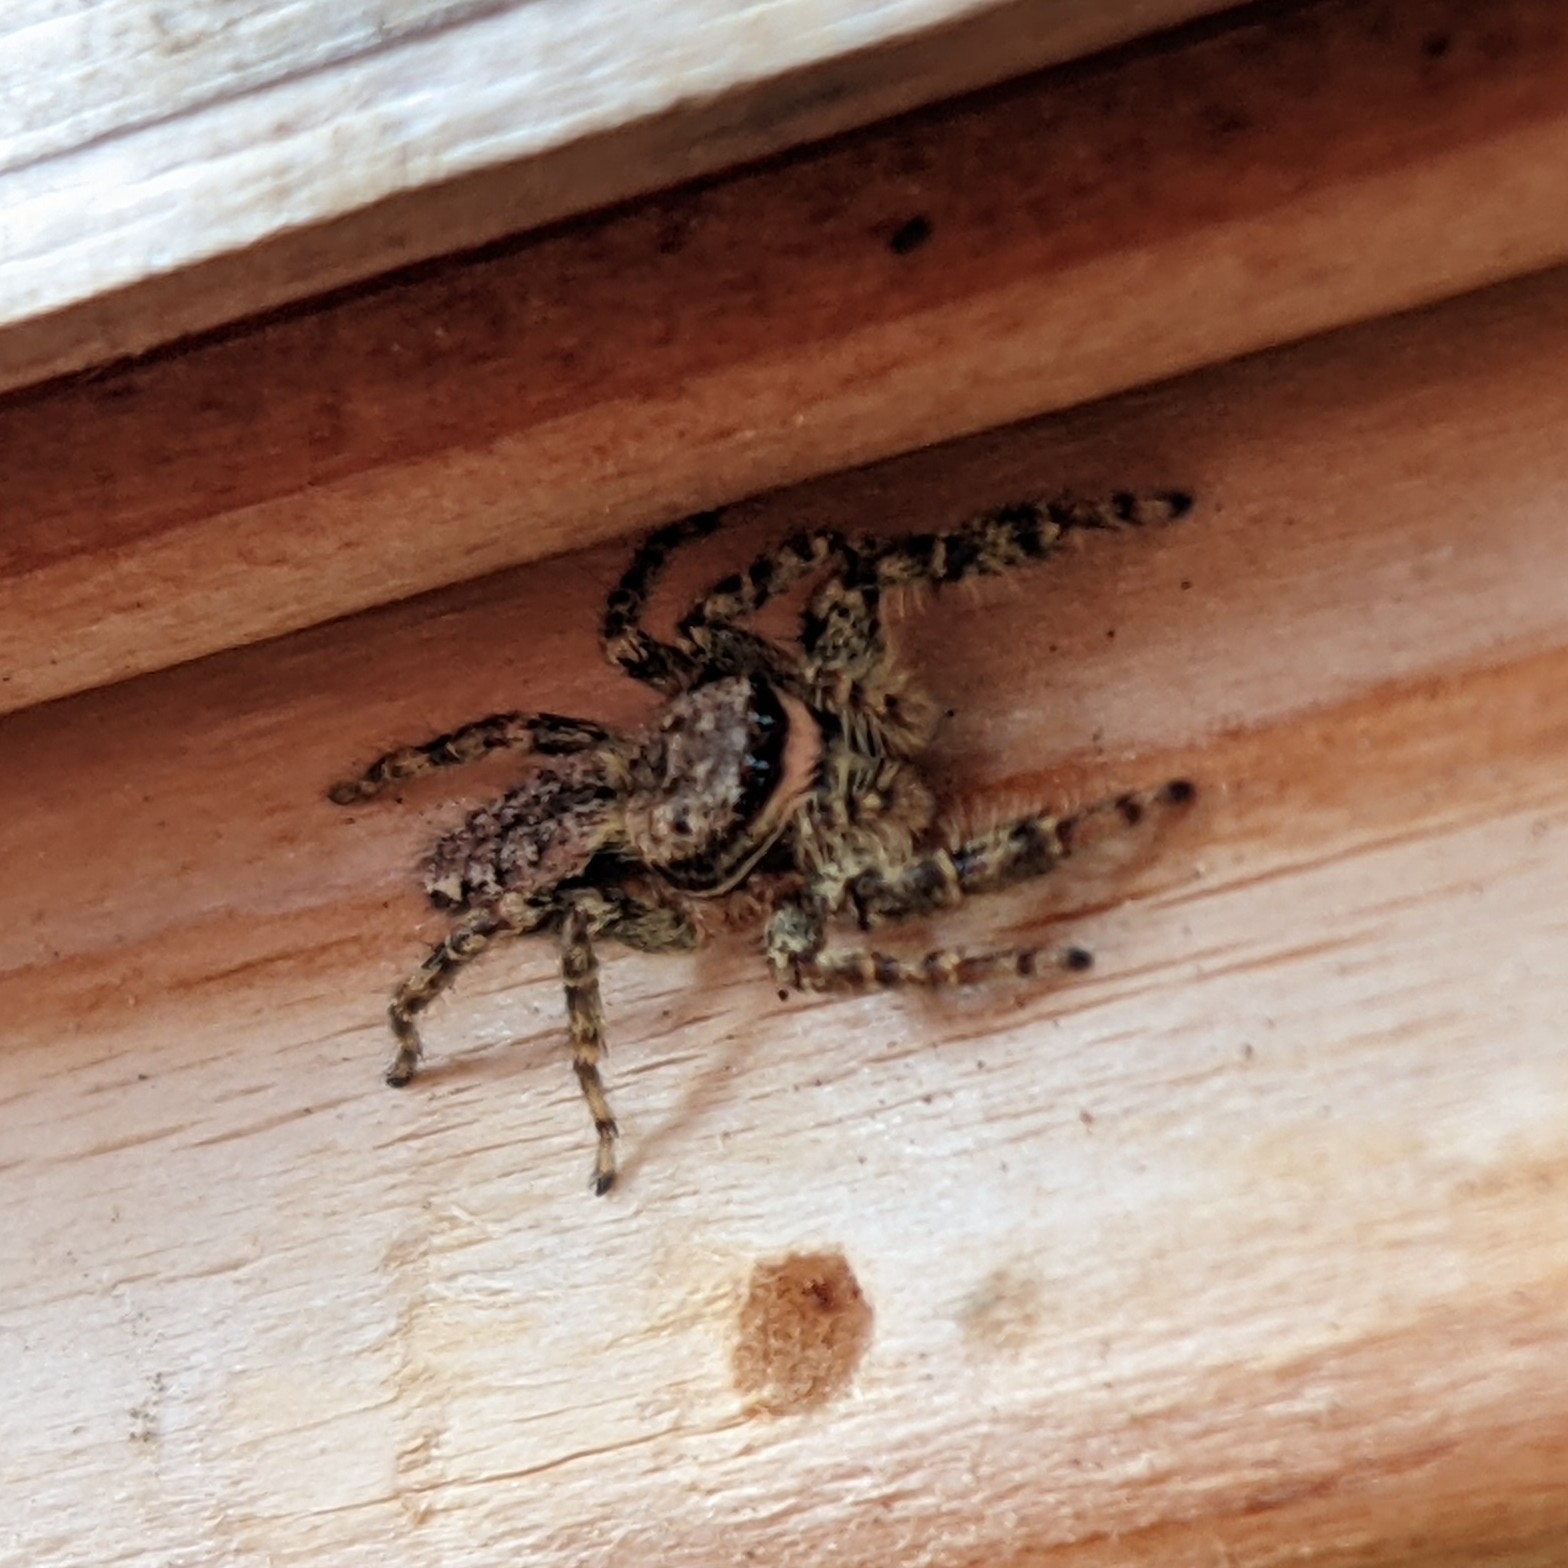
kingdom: Animalia
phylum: Arthropoda
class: Arachnida
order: Araneae
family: Salticidae
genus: Marpissa
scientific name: Marpissa muscosa
